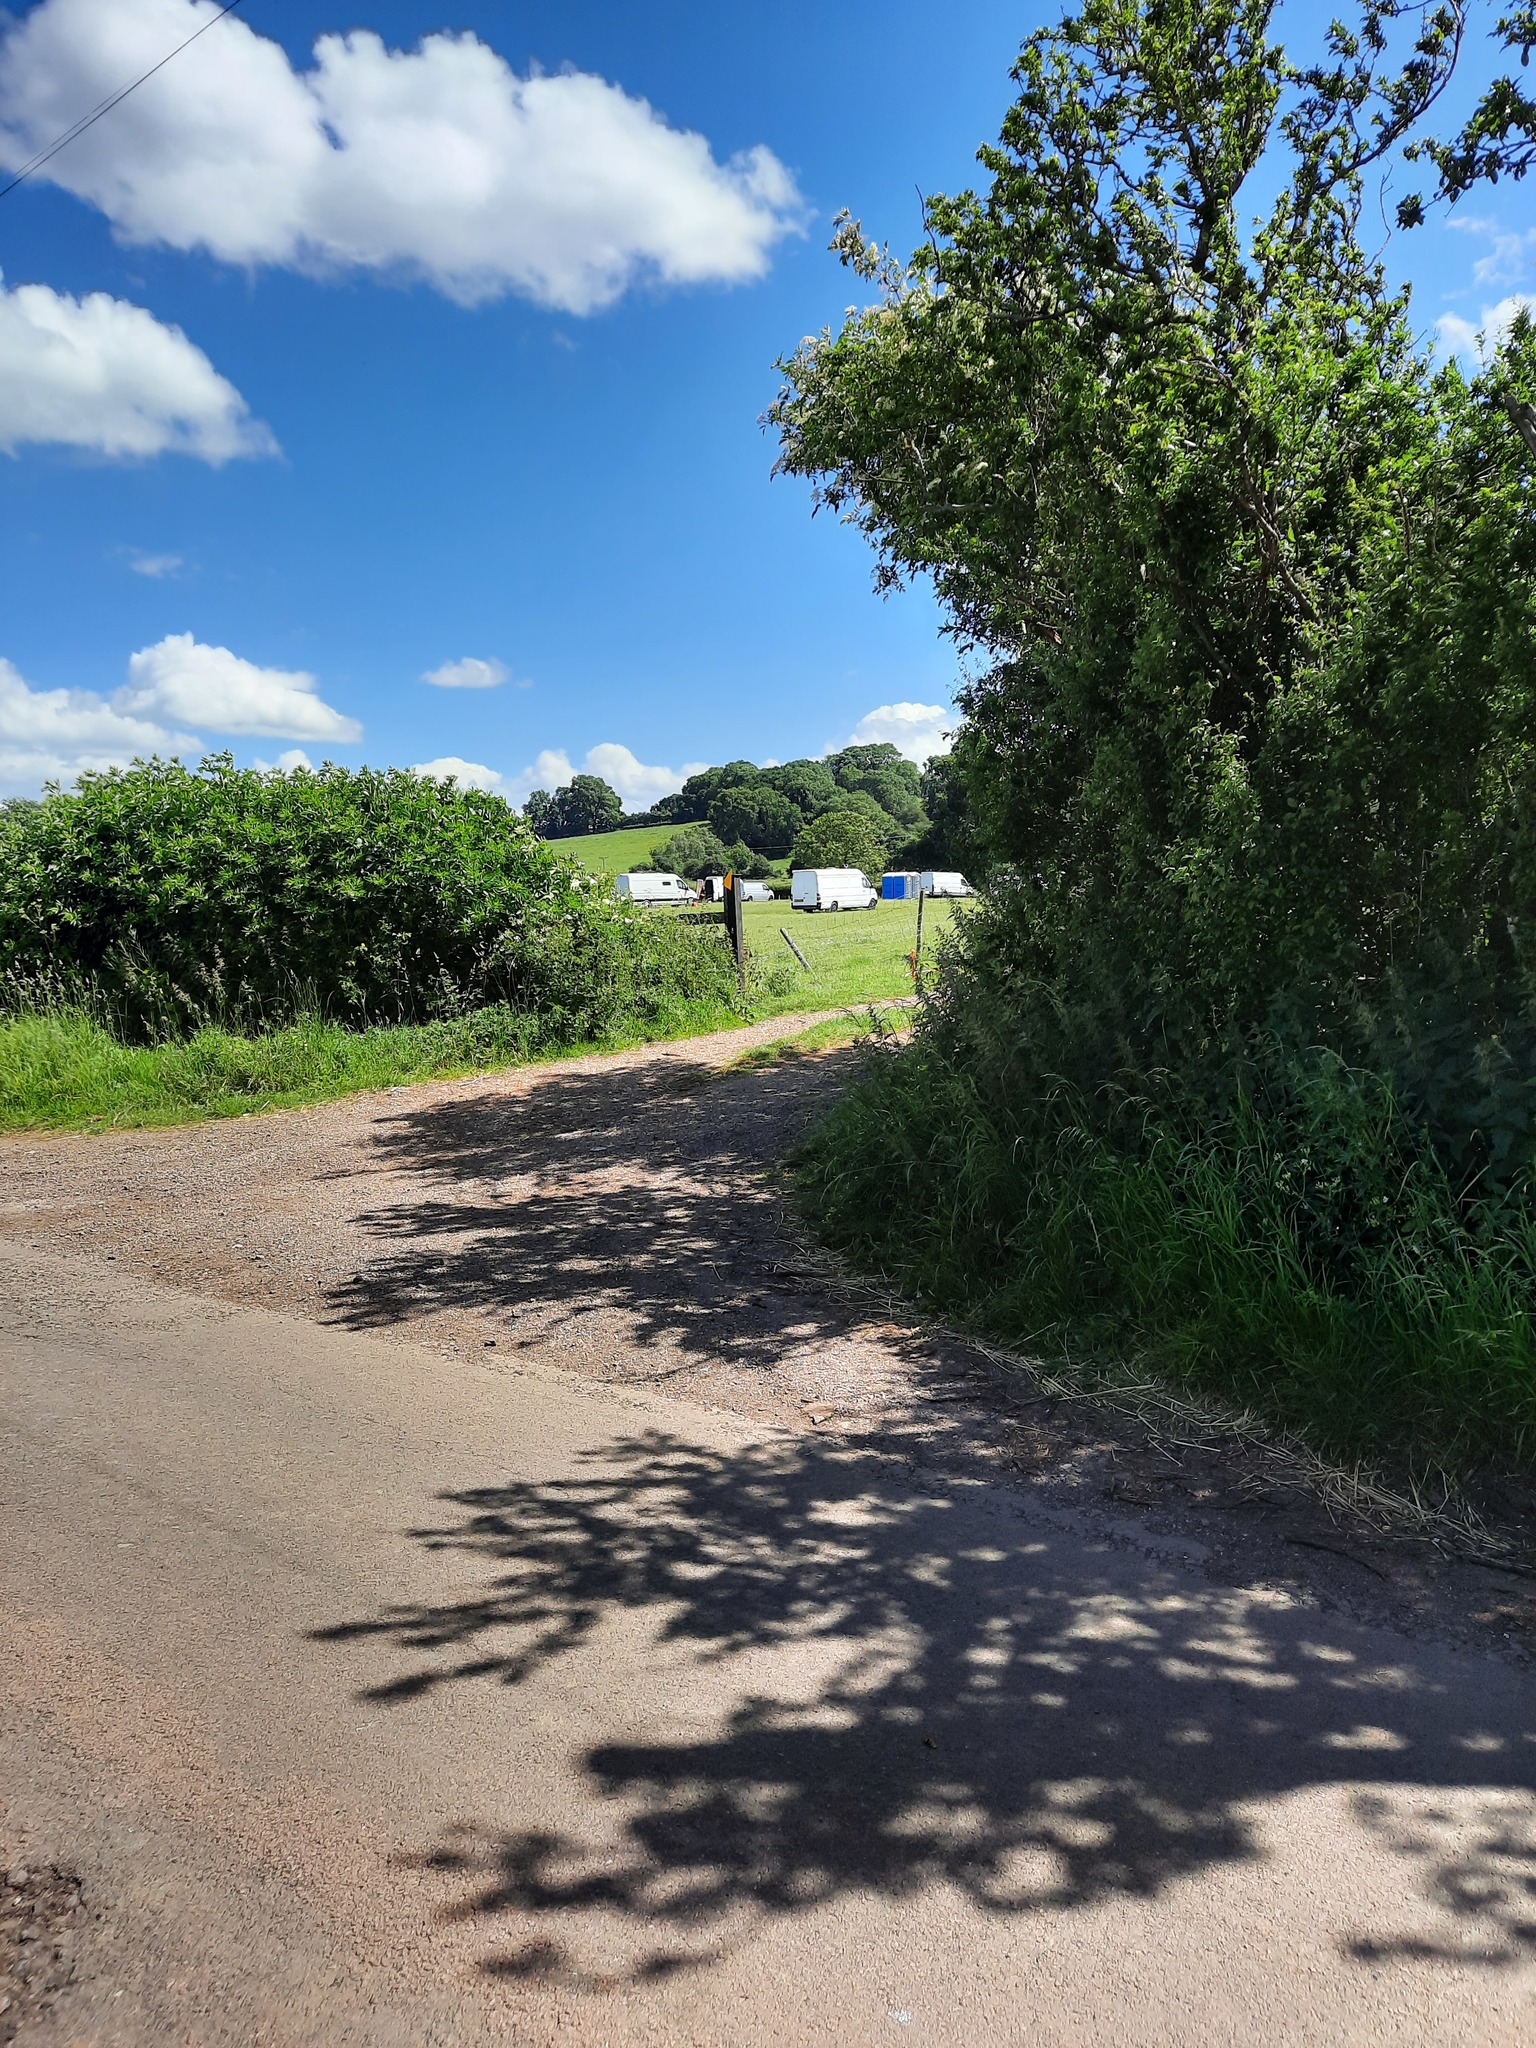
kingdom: Plantae
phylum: Tracheophyta
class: Magnoliopsida
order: Rosales
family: Rosaceae
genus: Crataegus
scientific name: Crataegus monogyna
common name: Hawthorn
